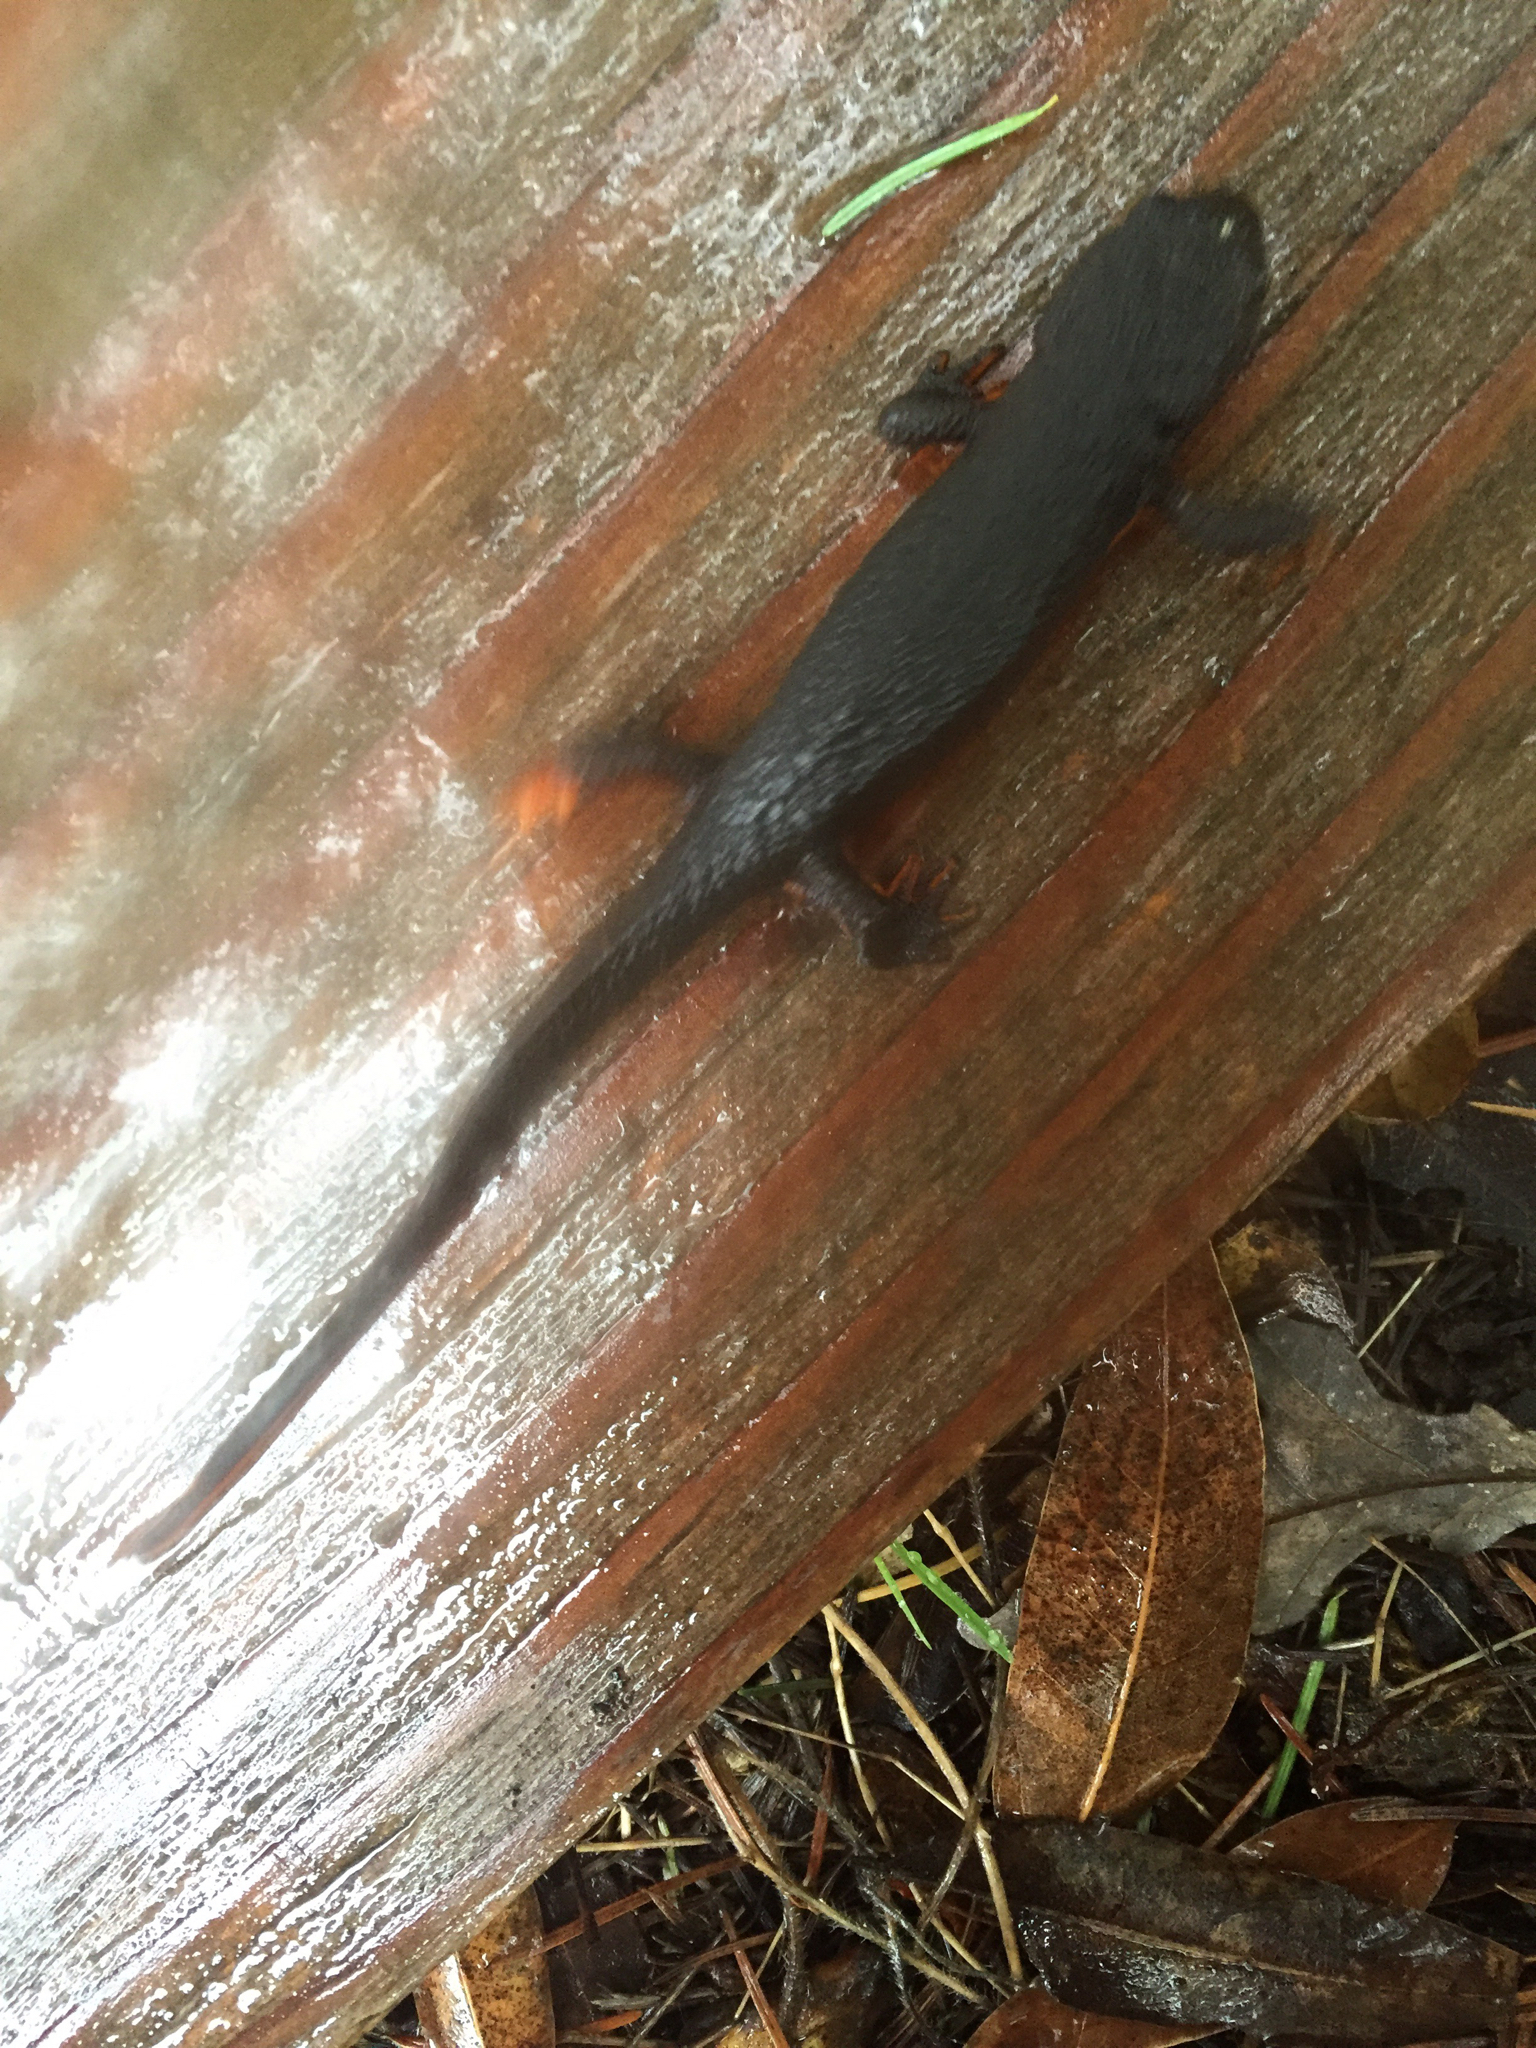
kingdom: Animalia
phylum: Chordata
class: Amphibia
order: Caudata
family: Salamandridae
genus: Taricha
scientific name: Taricha rivularis
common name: Red-bellied newt
